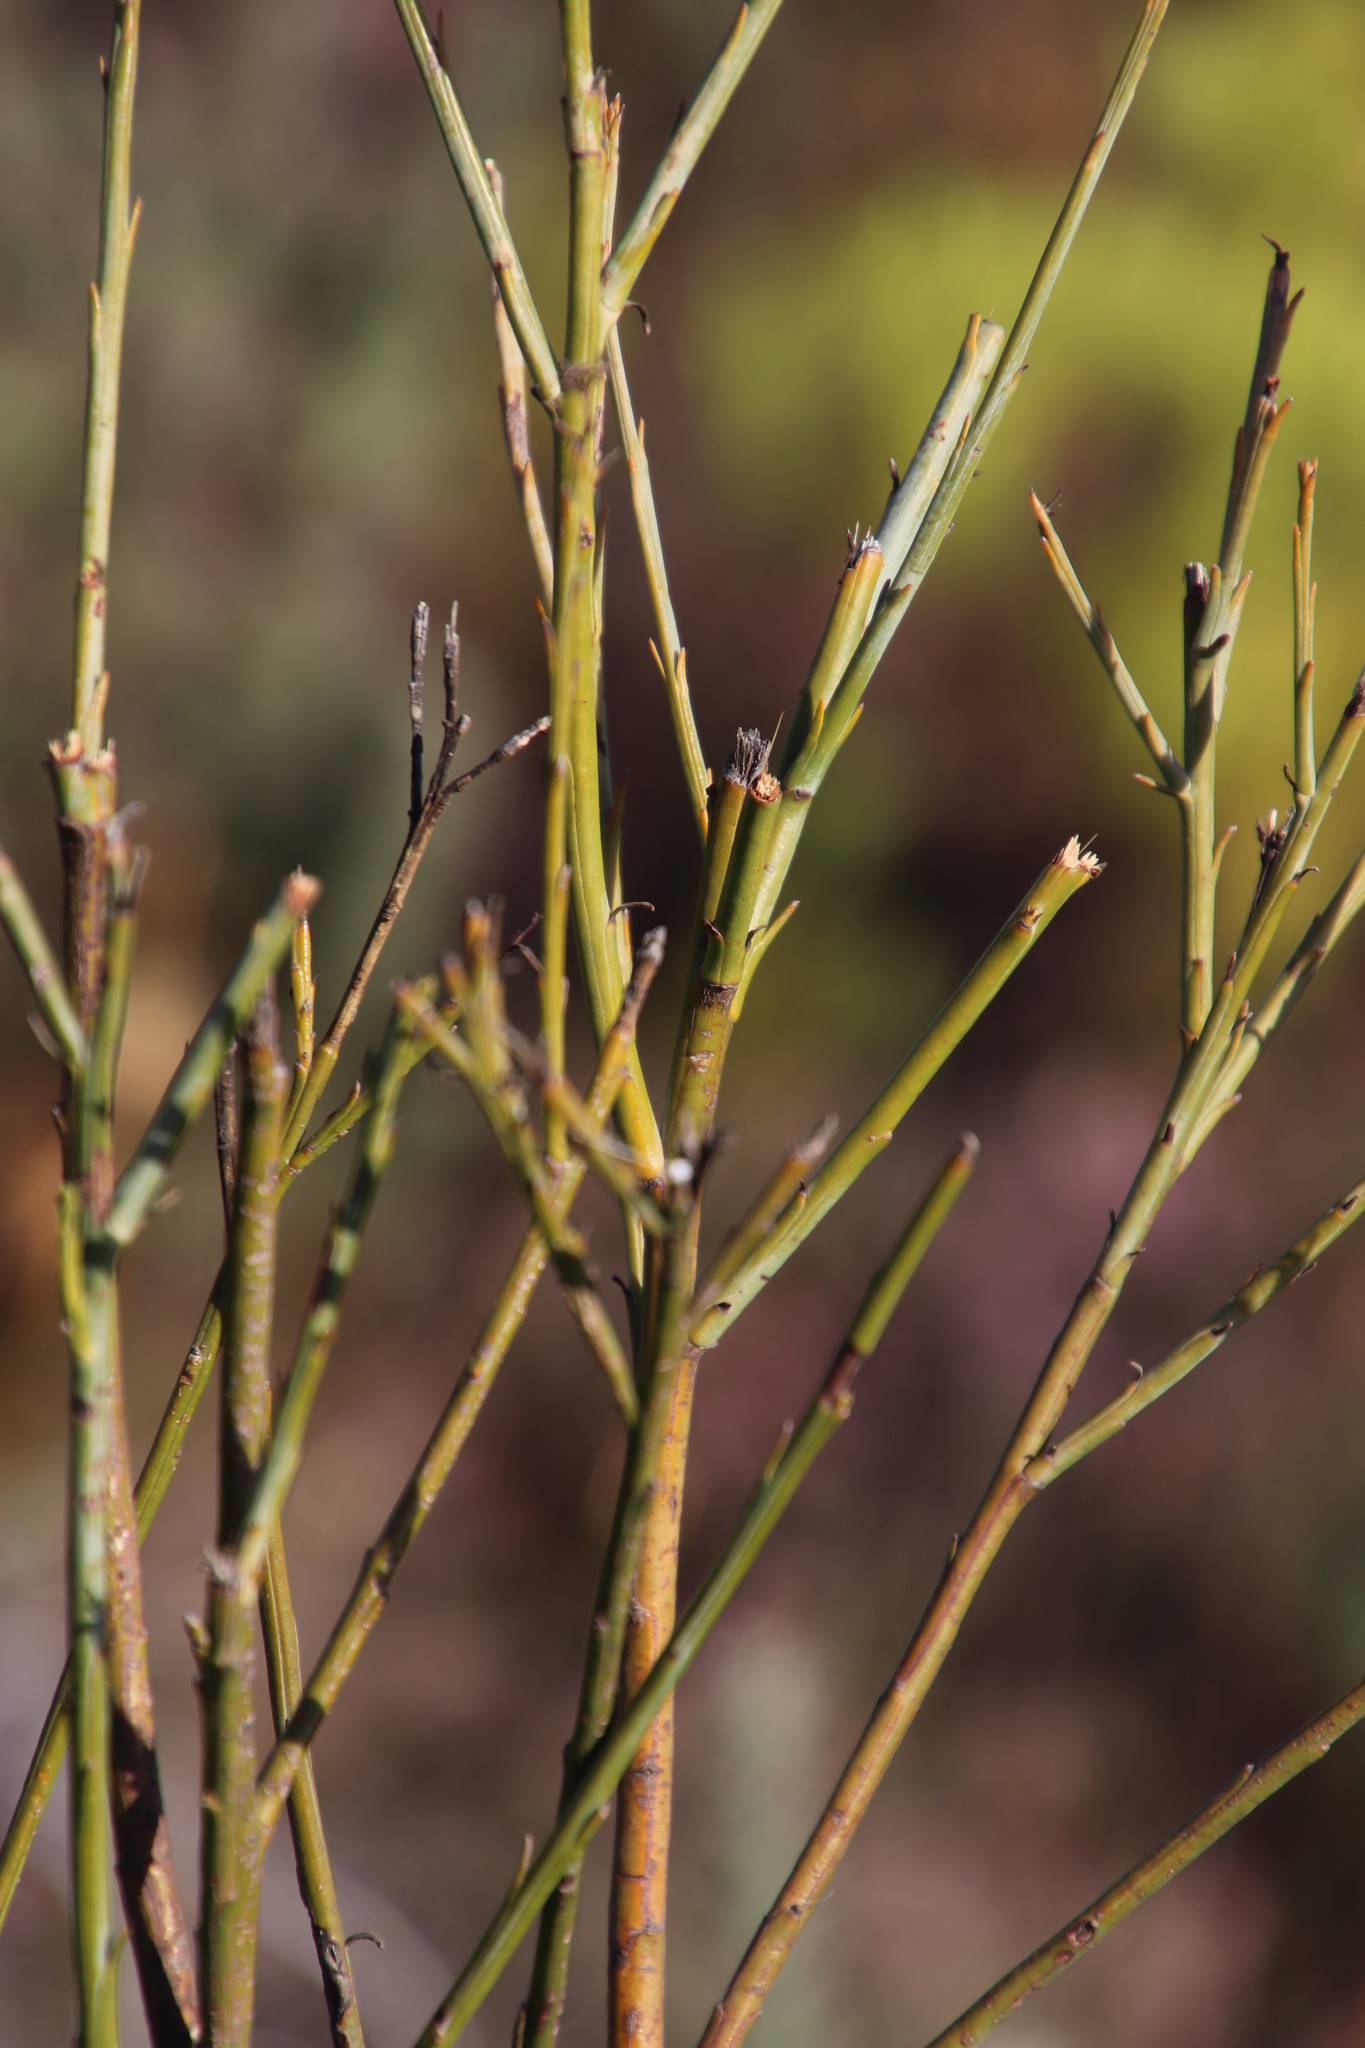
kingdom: Plantae
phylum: Tracheophyta
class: Magnoliopsida
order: Santalales
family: Thesiaceae
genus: Thesium
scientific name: Thesium strictum
